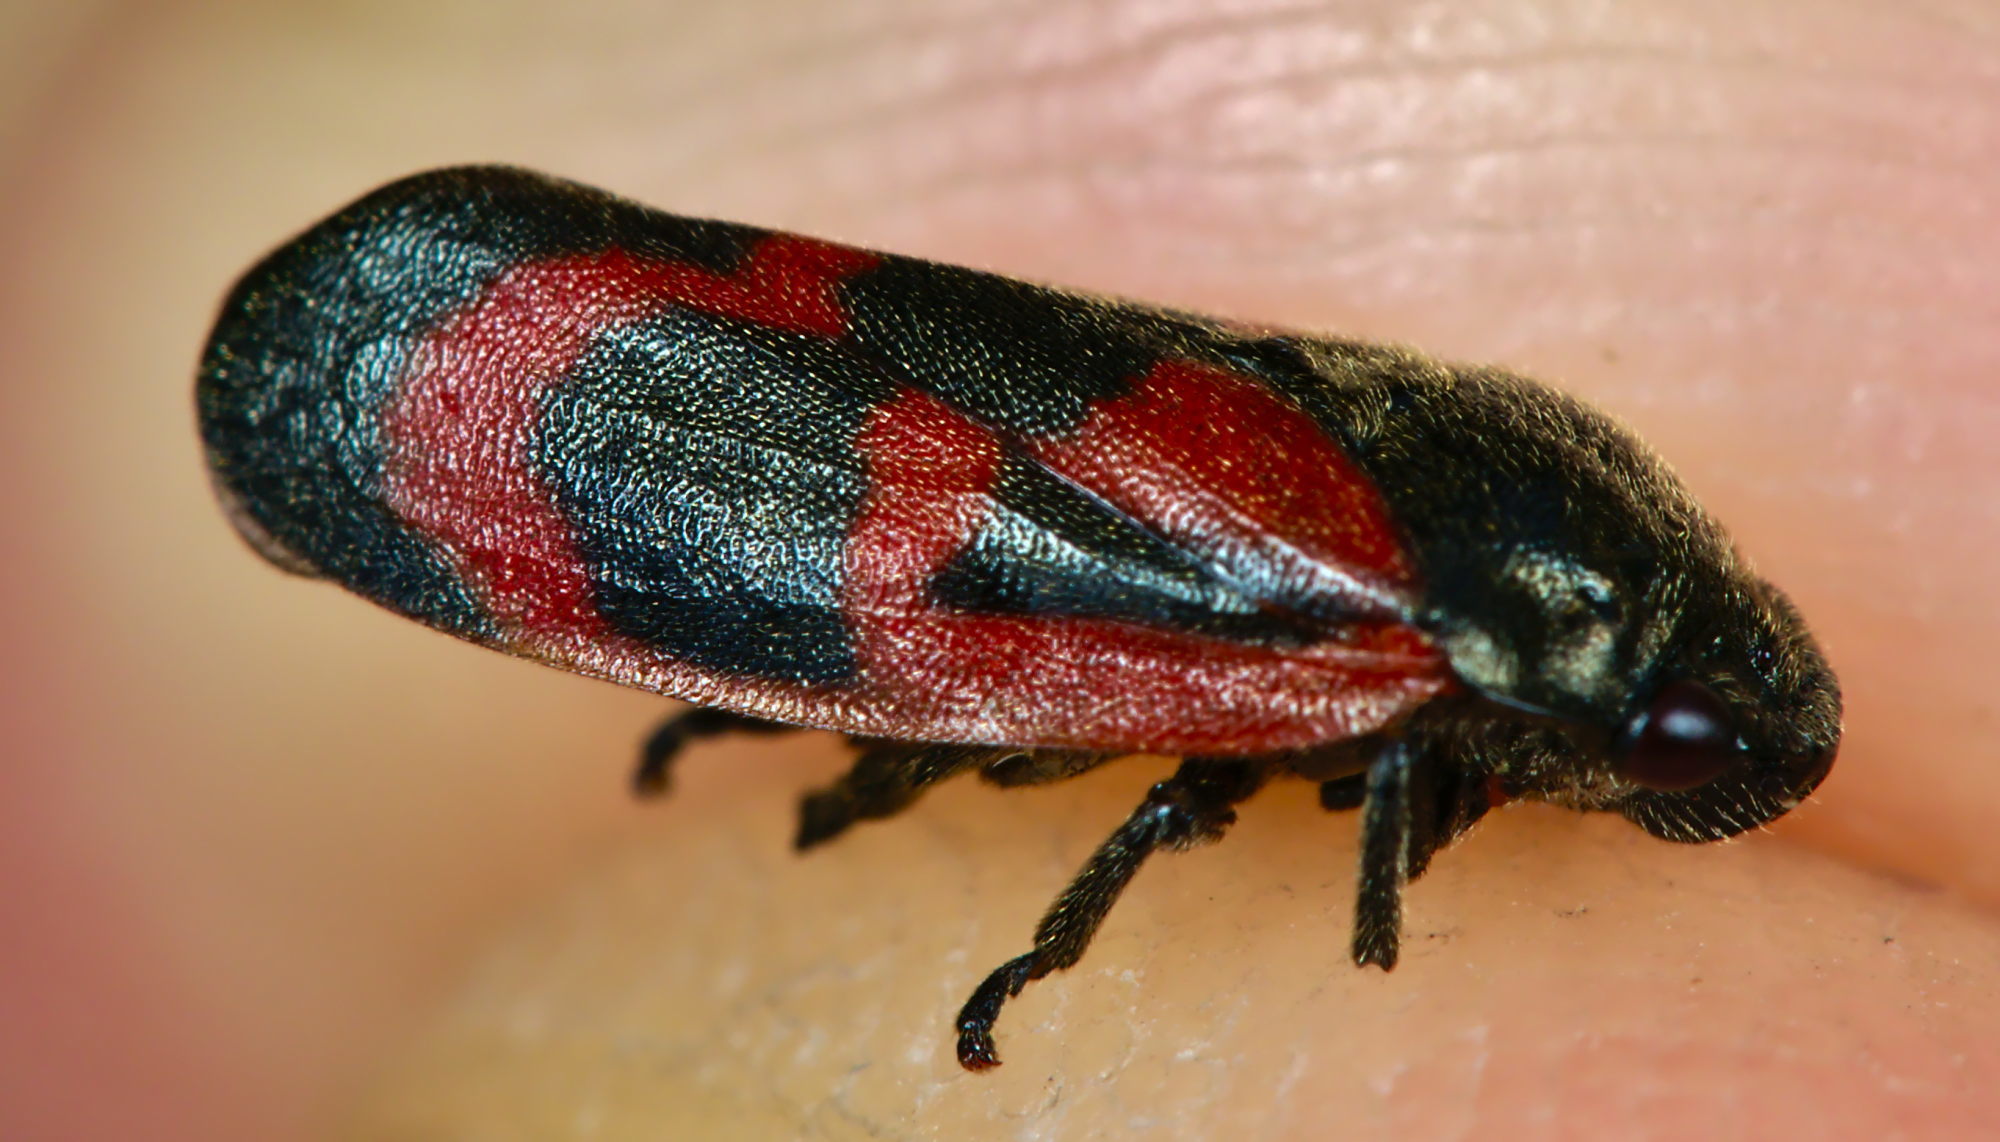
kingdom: Animalia
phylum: Arthropoda
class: Insecta
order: Hemiptera
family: Cercopidae
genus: Haematoloma
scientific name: Haematoloma dorsata
